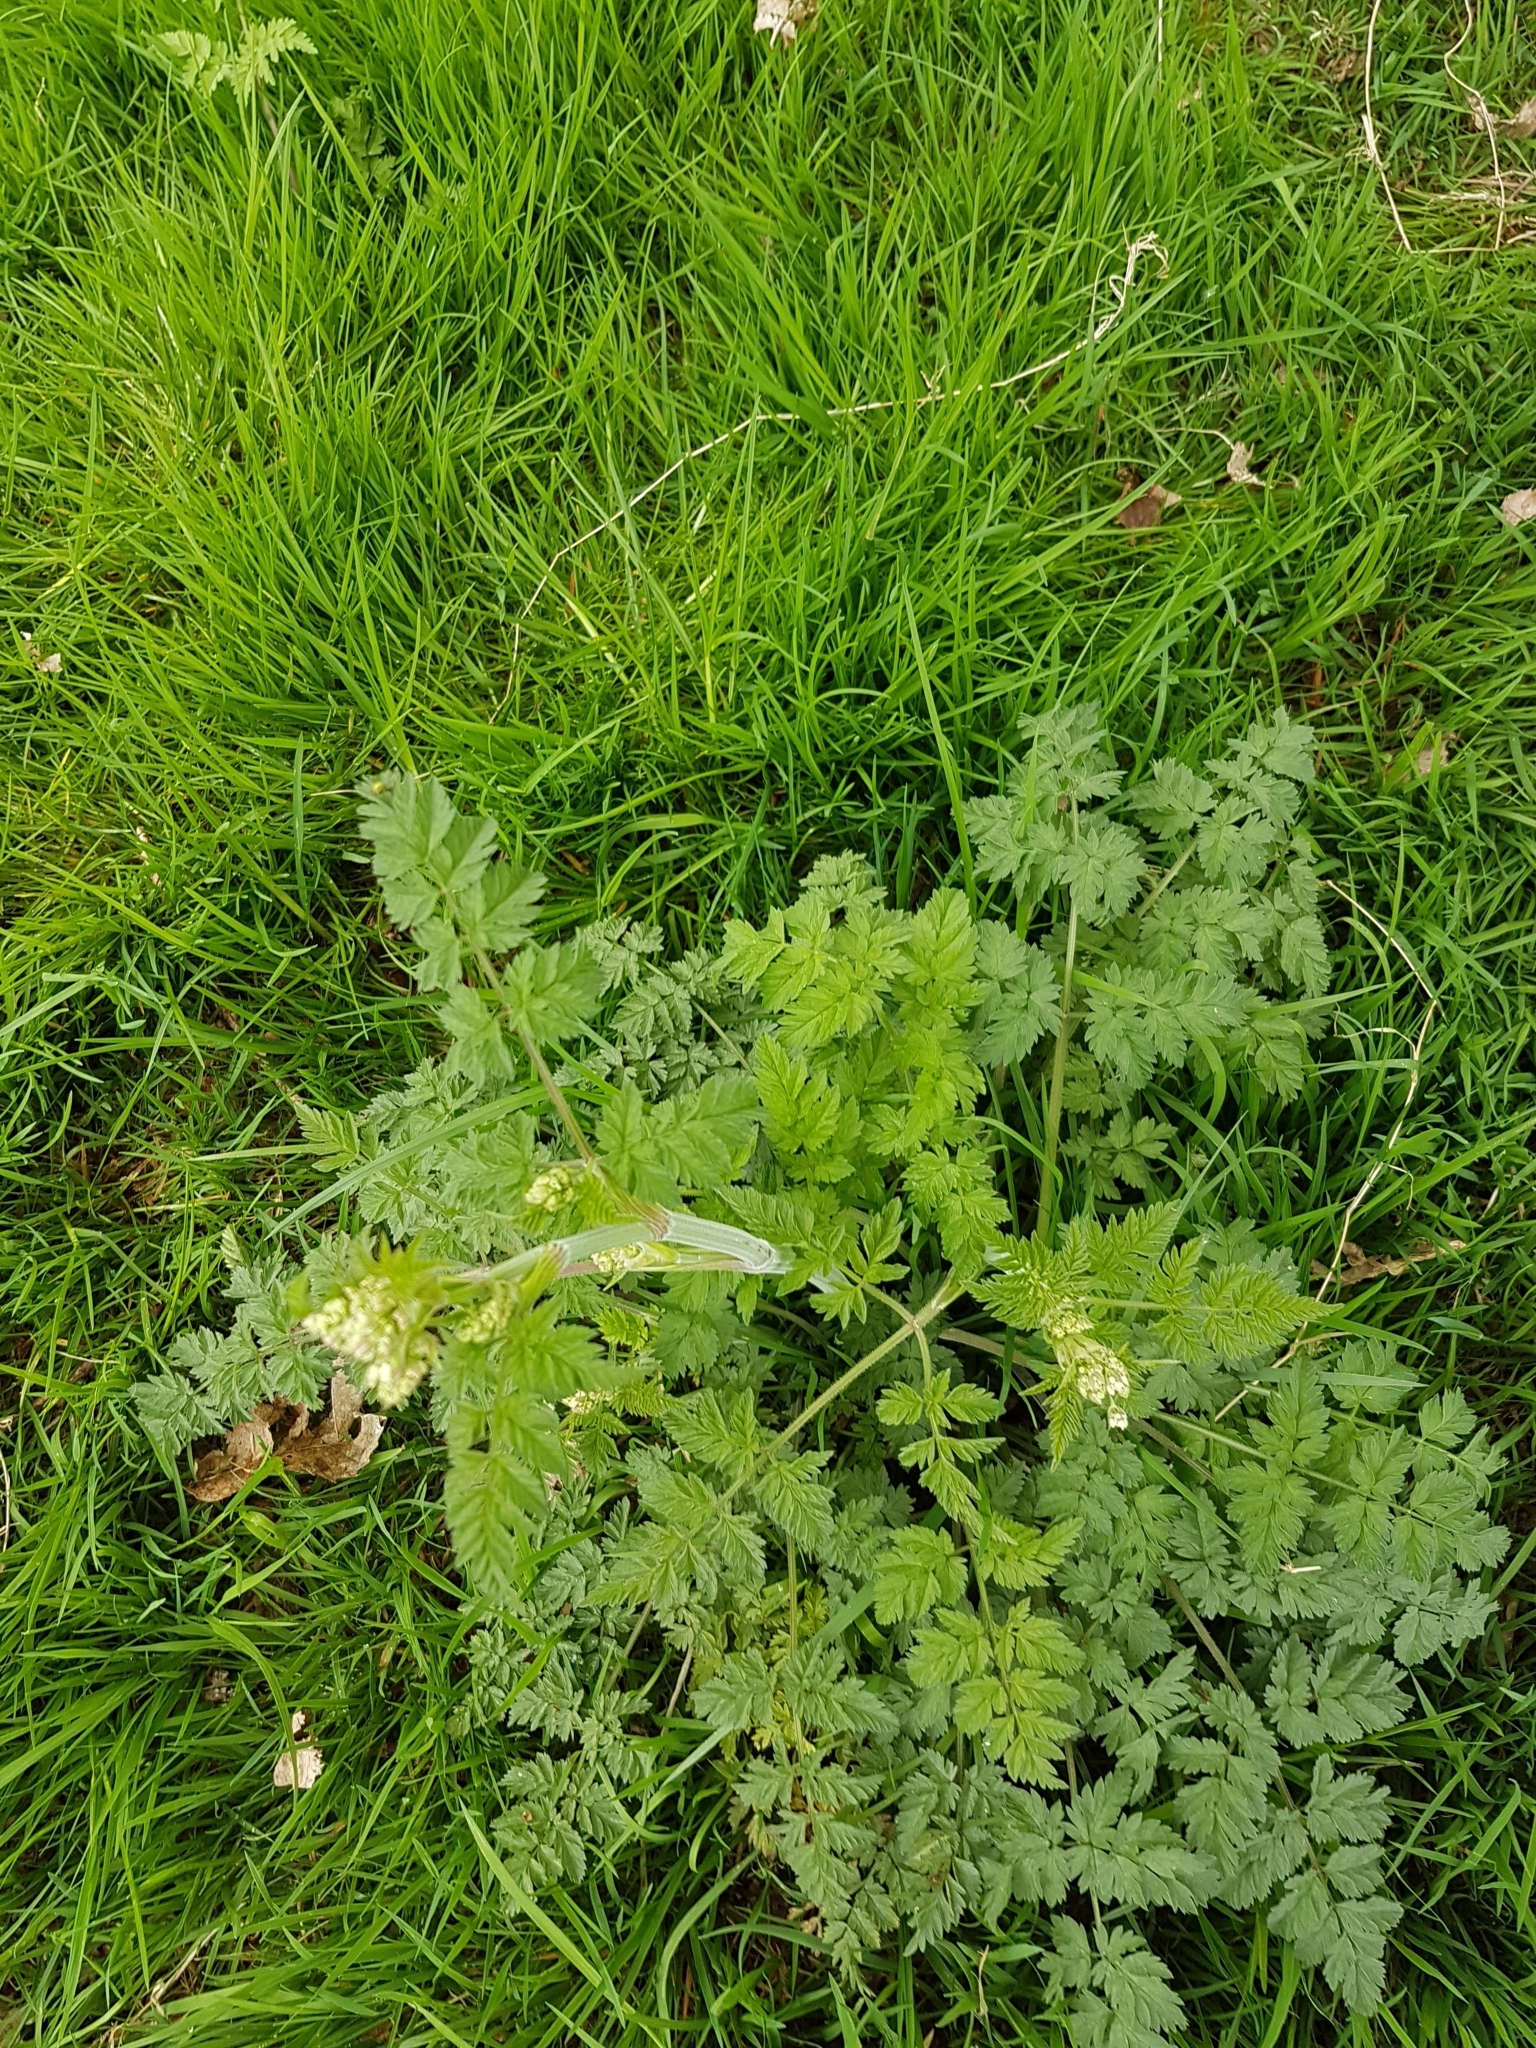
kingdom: Plantae
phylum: Tracheophyta
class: Magnoliopsida
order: Apiales
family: Apiaceae
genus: Anthriscus
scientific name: Anthriscus sylvestris
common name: Cow parsley
